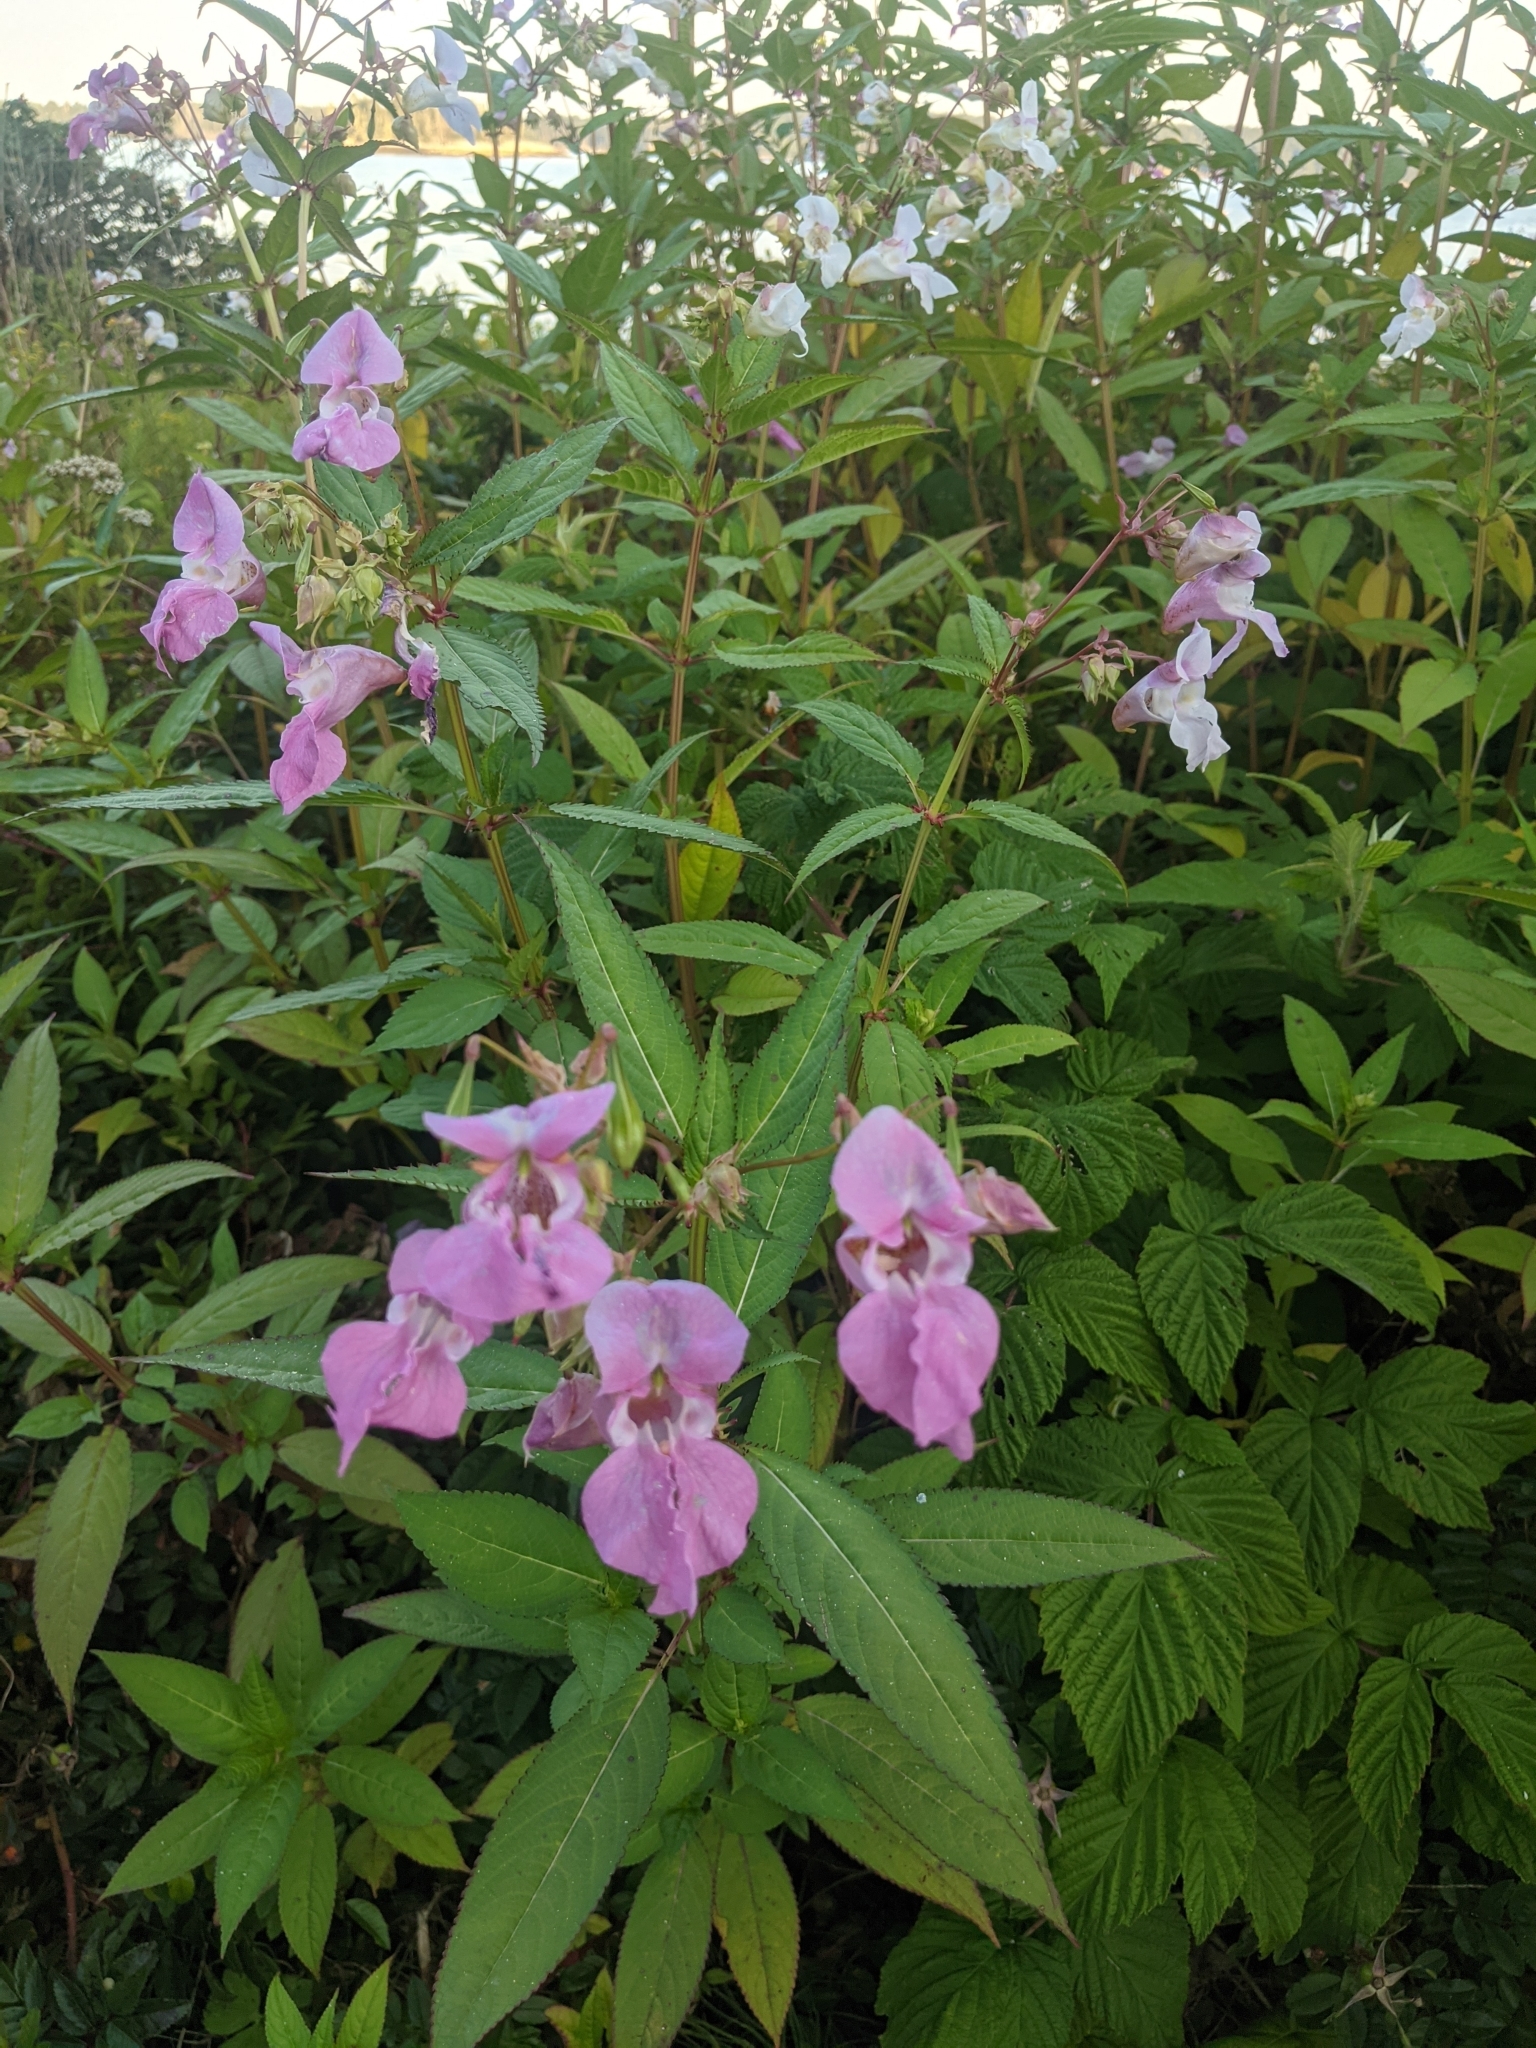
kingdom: Plantae
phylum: Tracheophyta
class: Magnoliopsida
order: Ericales
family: Balsaminaceae
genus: Impatiens
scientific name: Impatiens glandulifera
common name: Himalayan balsam
